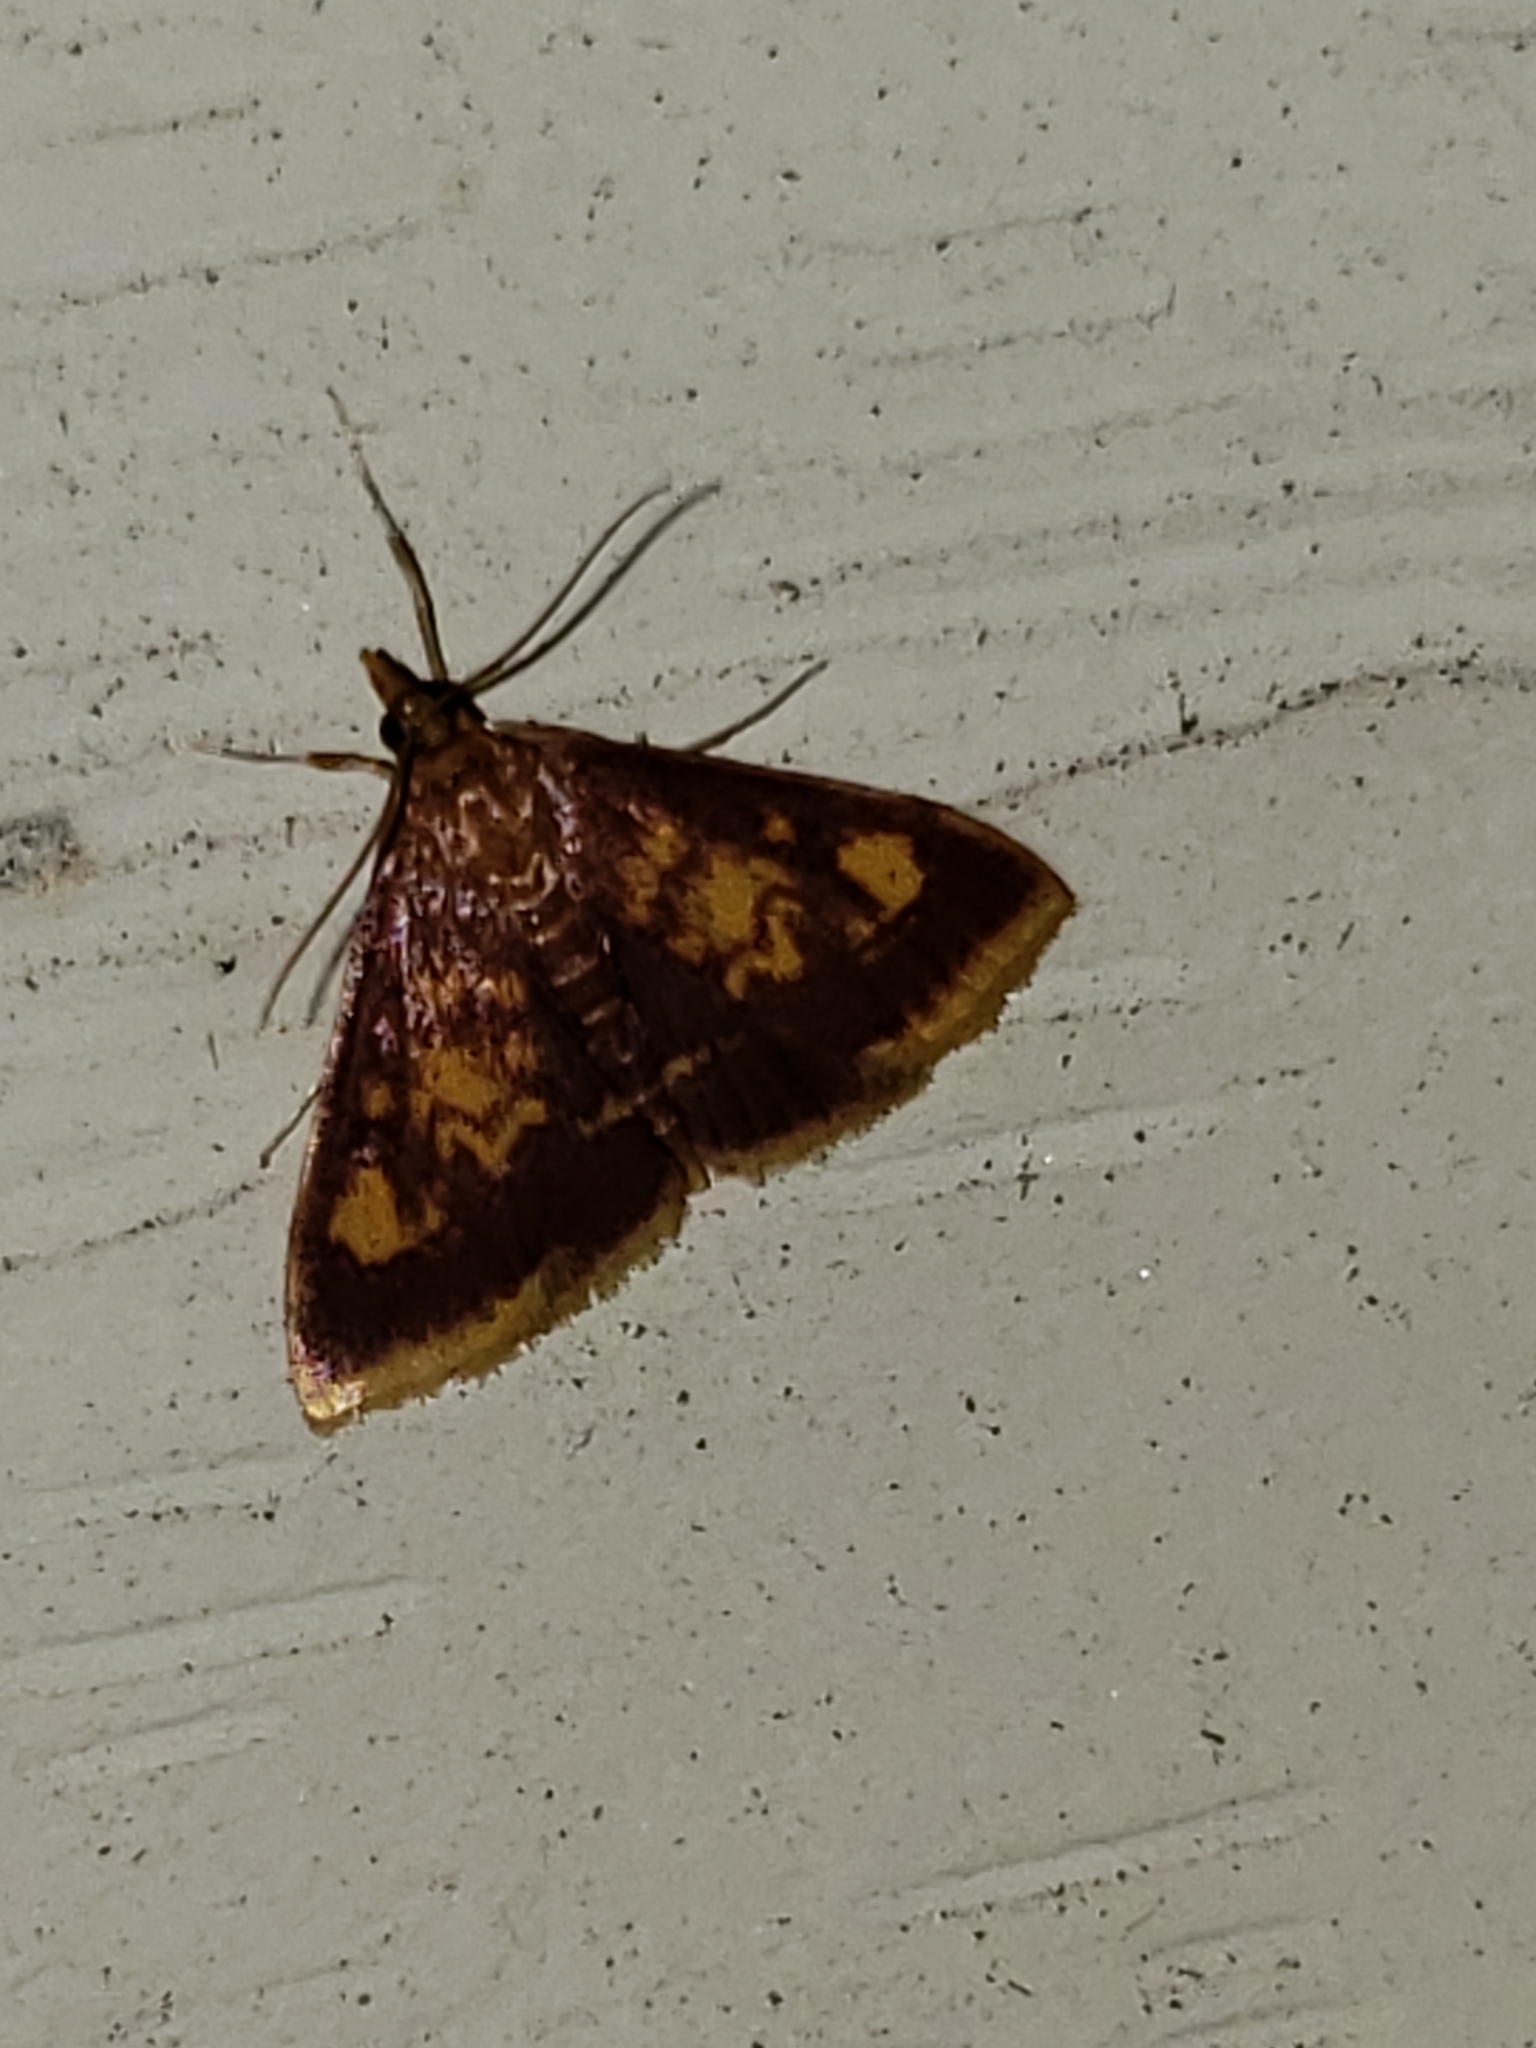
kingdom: Animalia
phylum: Arthropoda
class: Insecta
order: Lepidoptera
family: Crambidae
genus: Pyrausta
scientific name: Pyrausta acrionalis
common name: Mint-loving pyrausta moth
